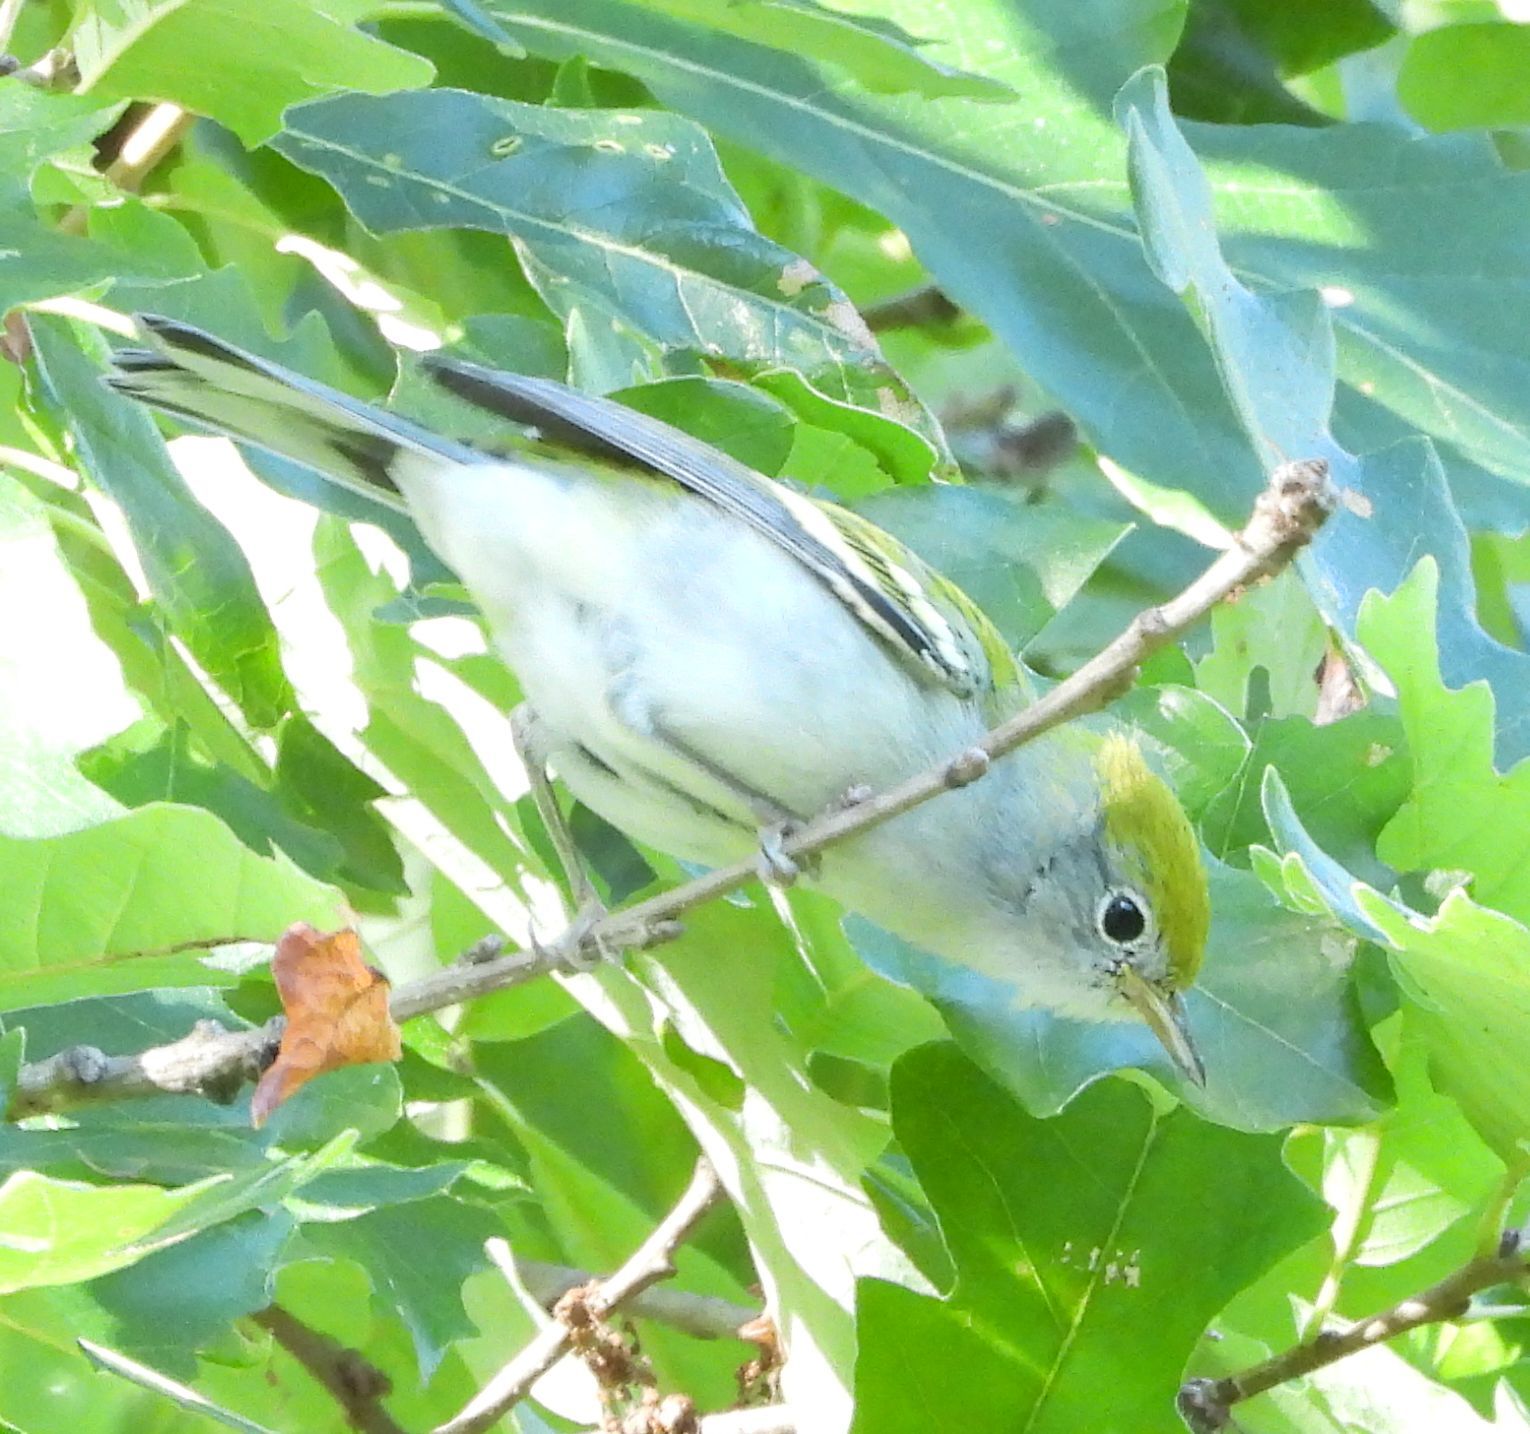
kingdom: Animalia
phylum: Chordata
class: Aves
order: Passeriformes
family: Parulidae
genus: Setophaga
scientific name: Setophaga pensylvanica
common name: Chestnut-sided warbler
